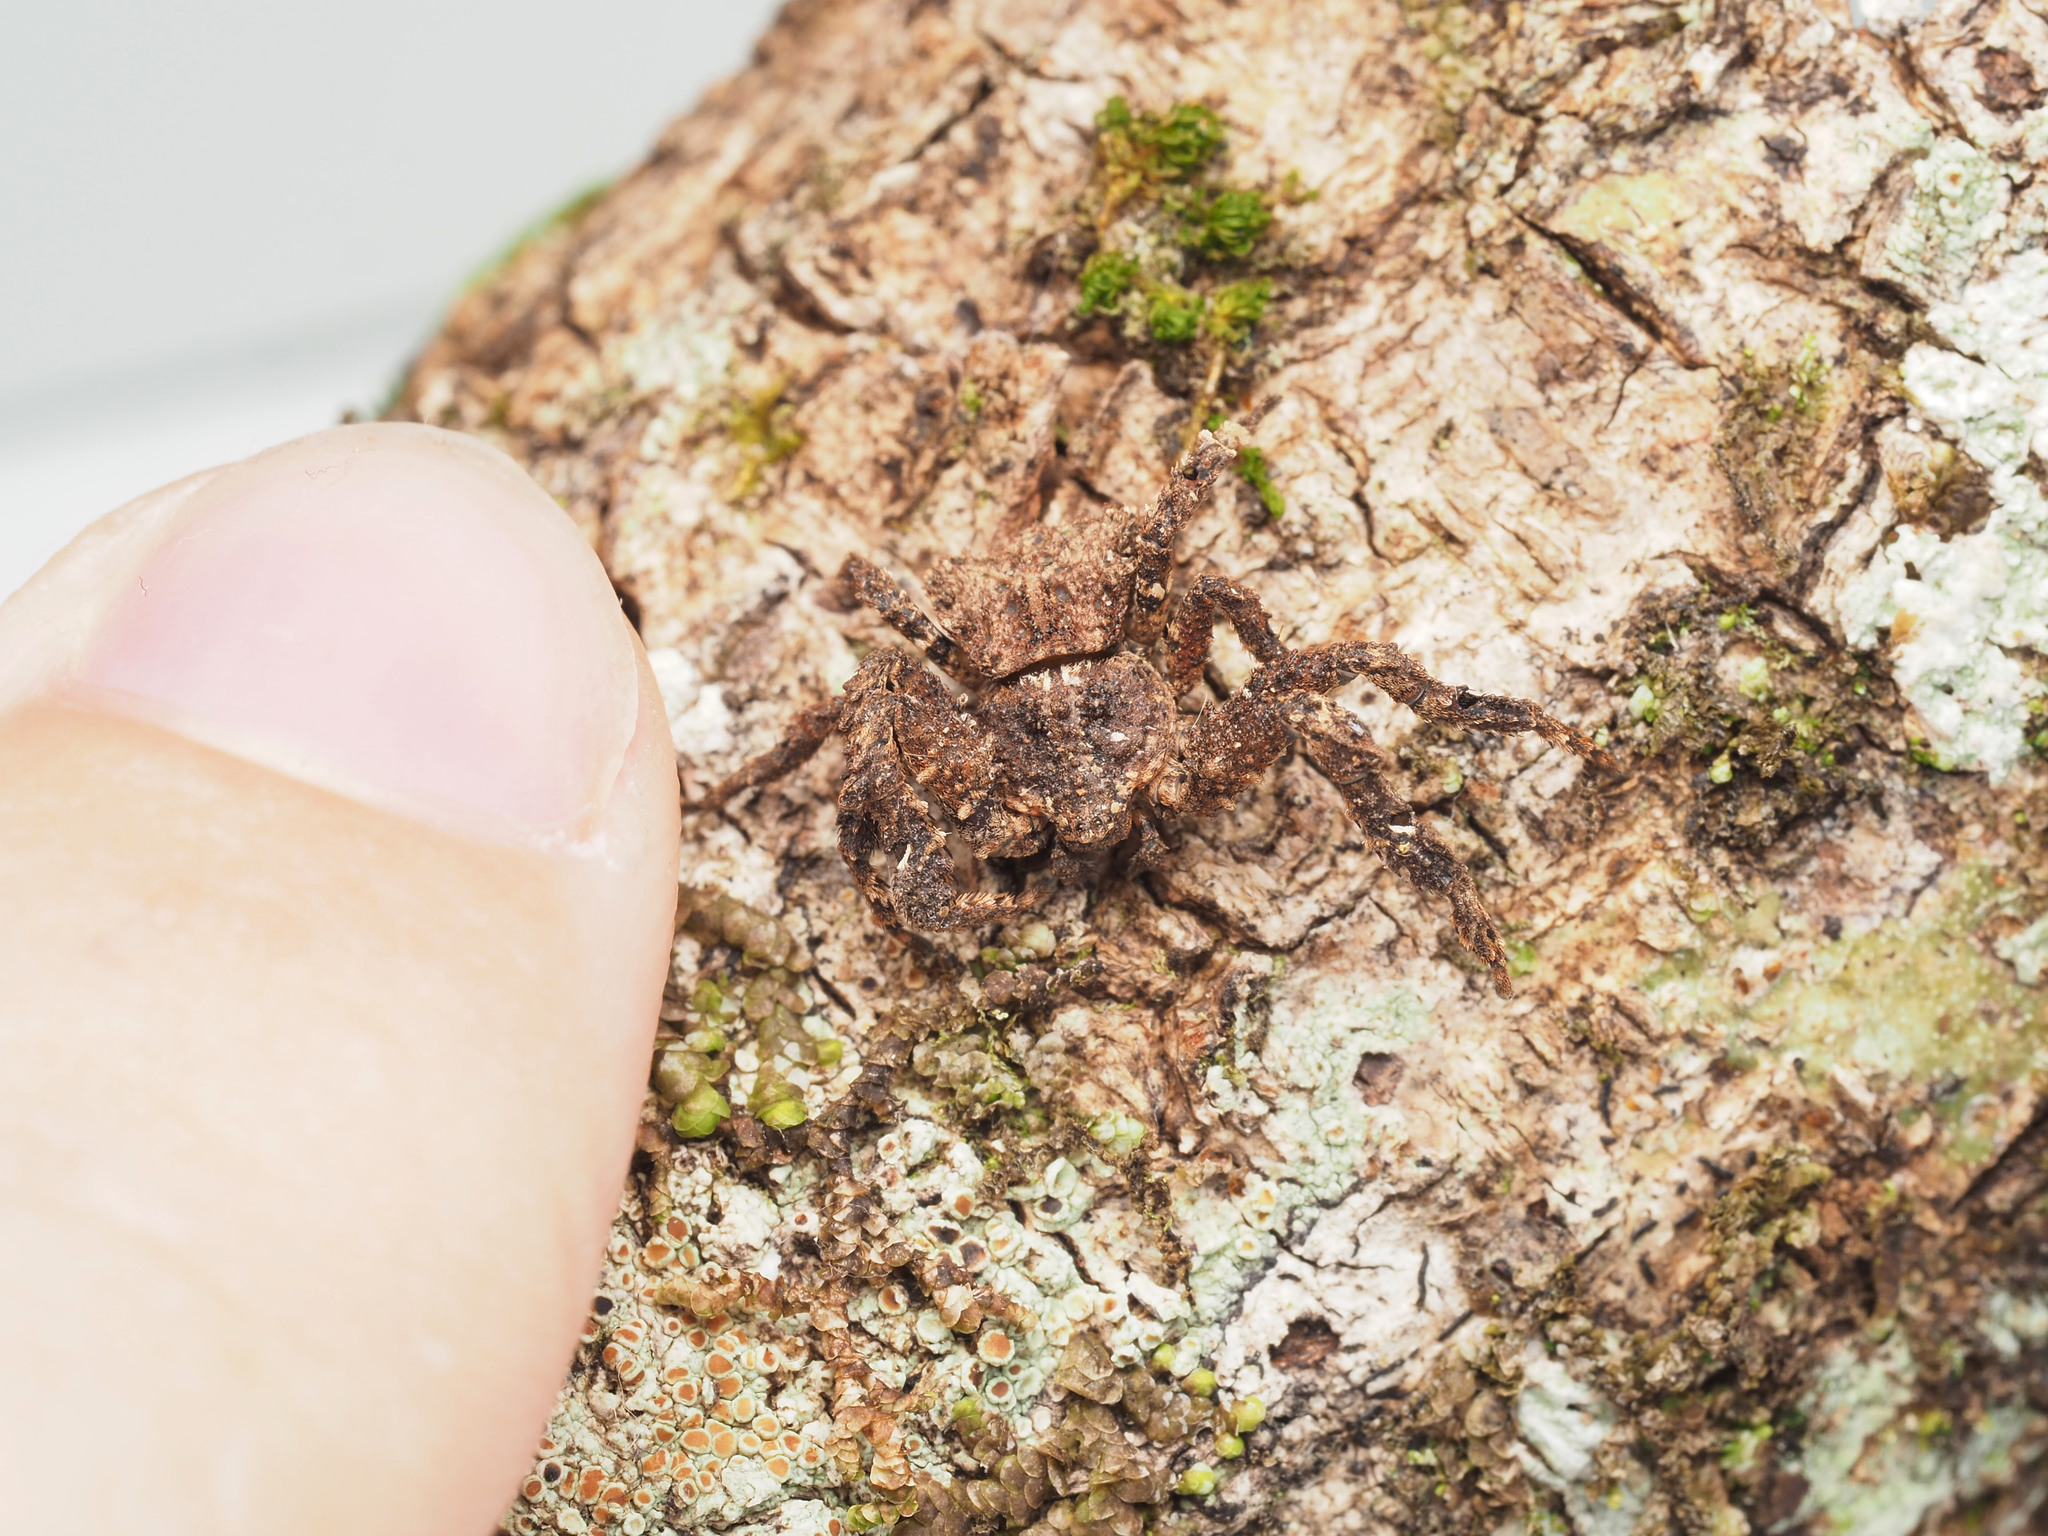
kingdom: Animalia
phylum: Arthropoda
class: Arachnida
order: Araneae
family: Thomisidae
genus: Stephanopis
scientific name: Stephanopis armata
